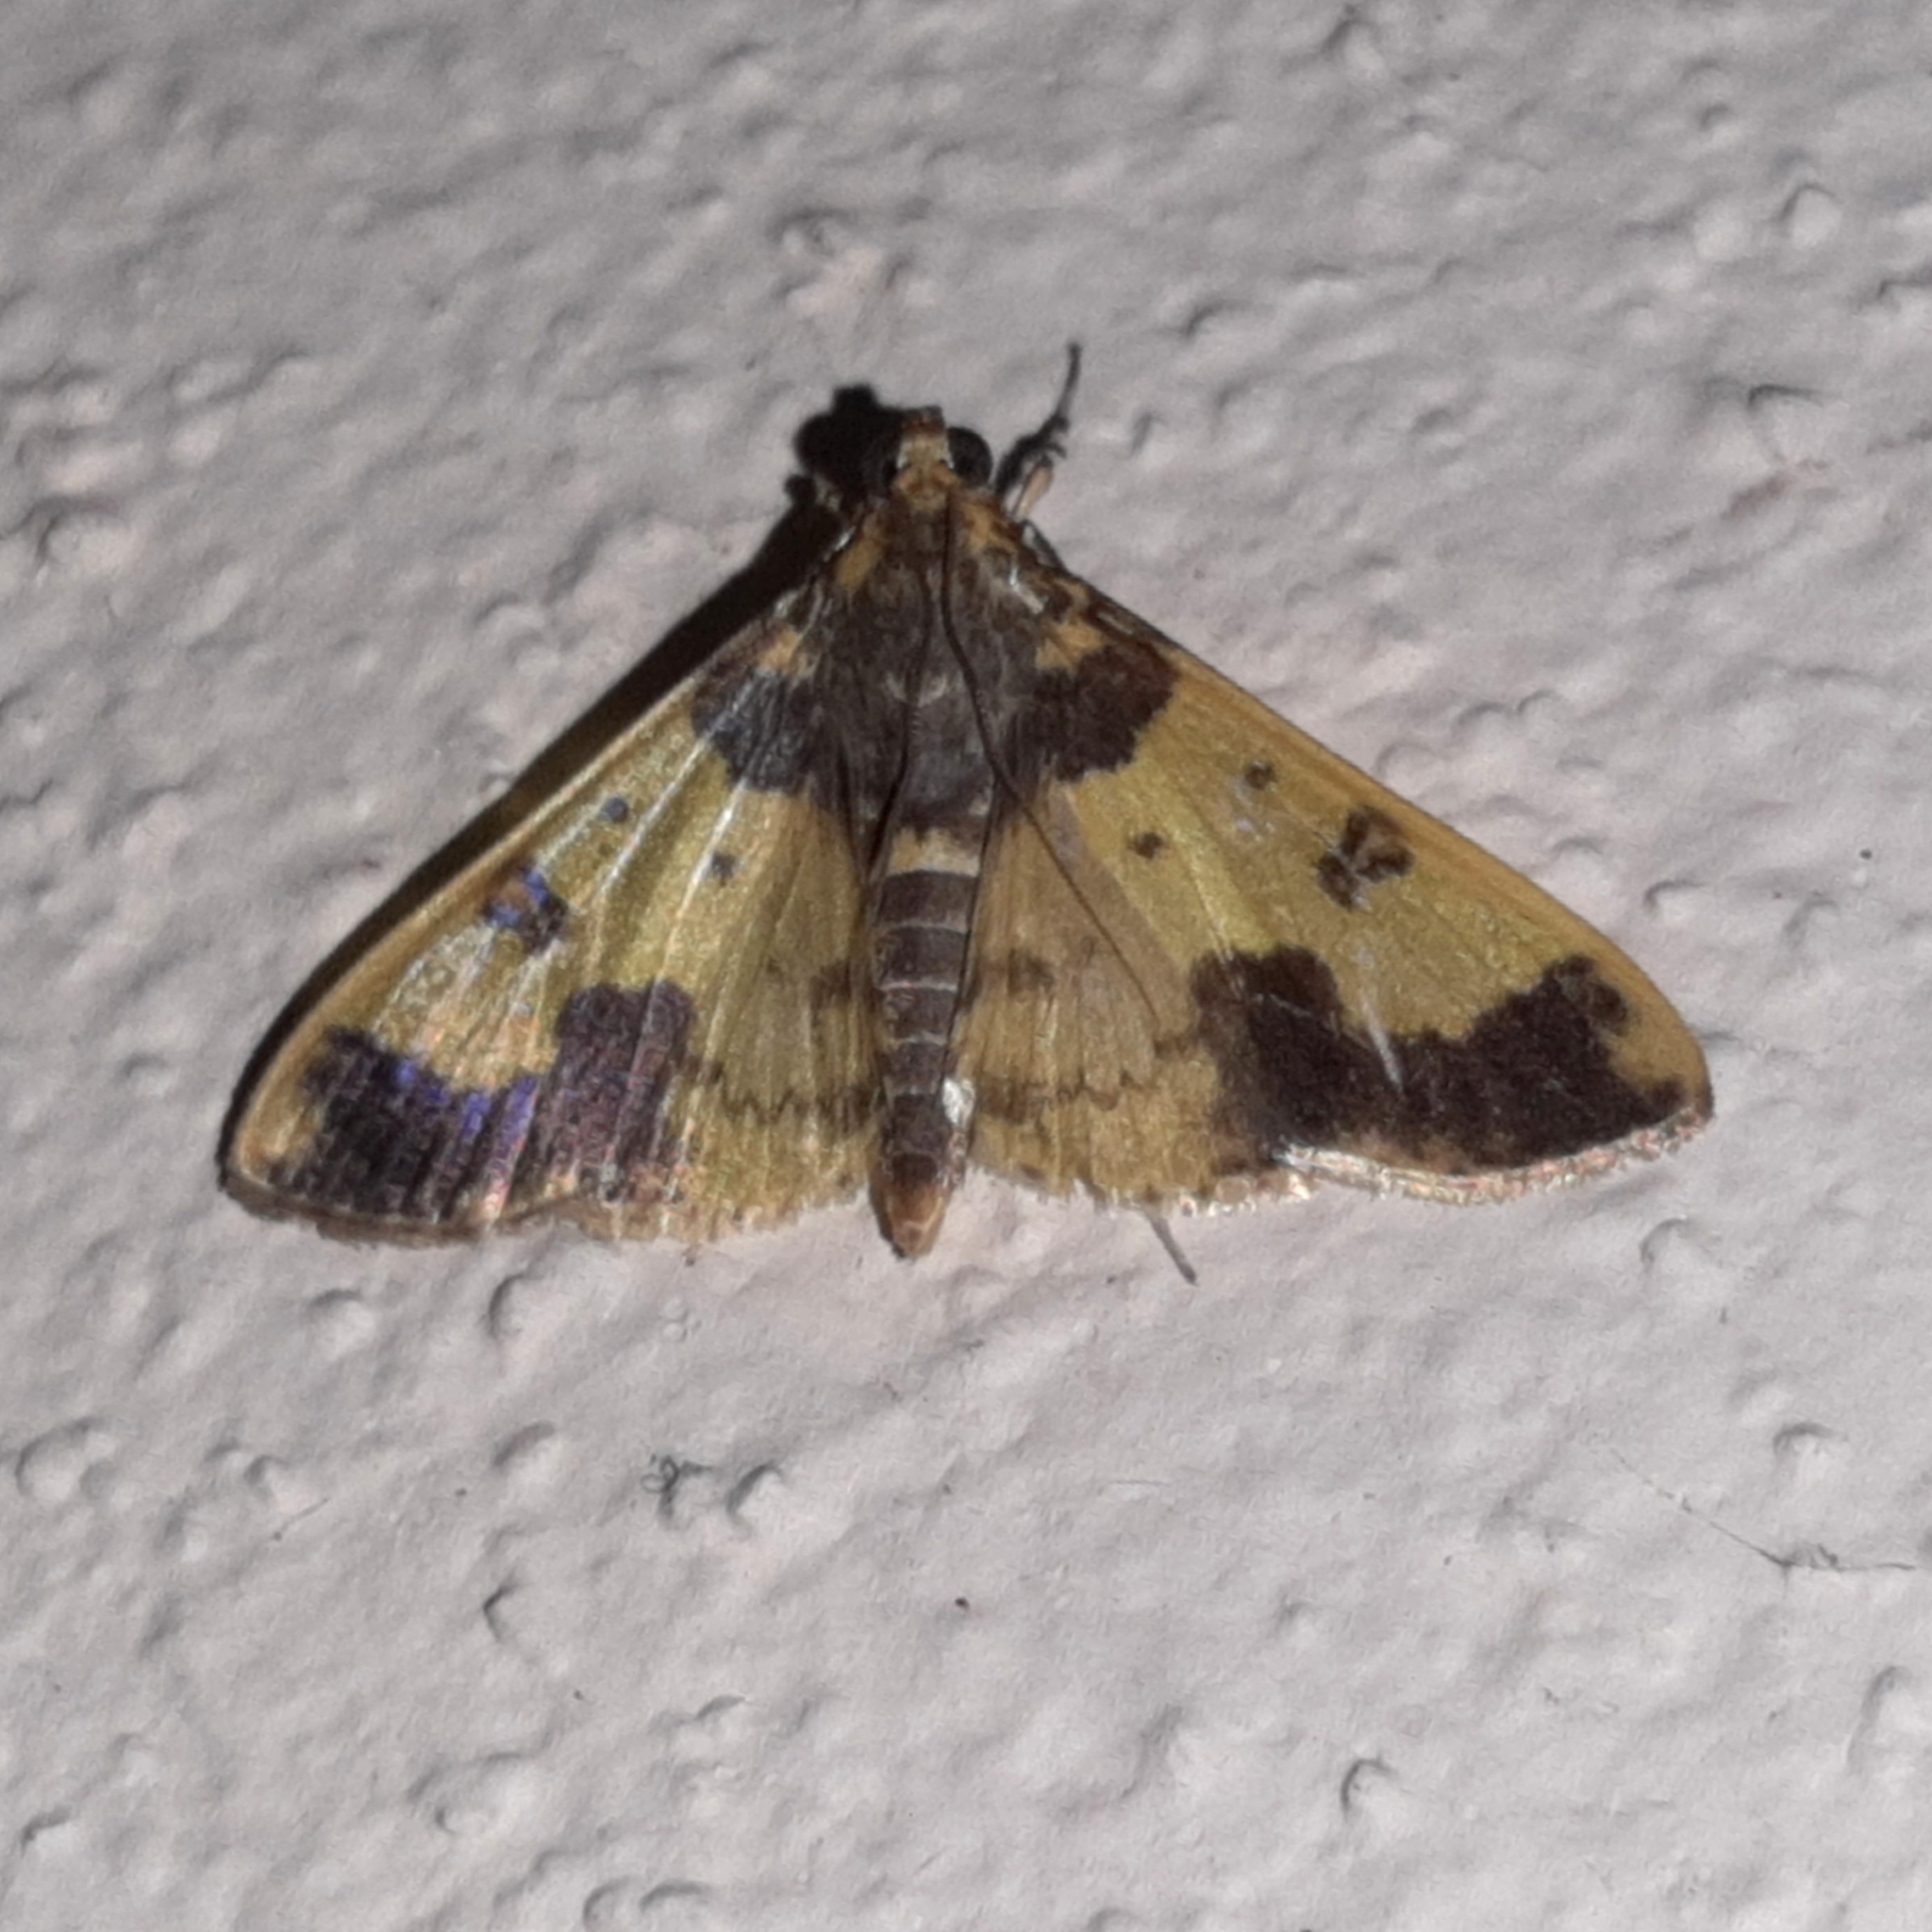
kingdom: Animalia
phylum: Arthropoda
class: Insecta
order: Lepidoptera
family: Crambidae
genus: Syllepte
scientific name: Syllepte pactolalis
